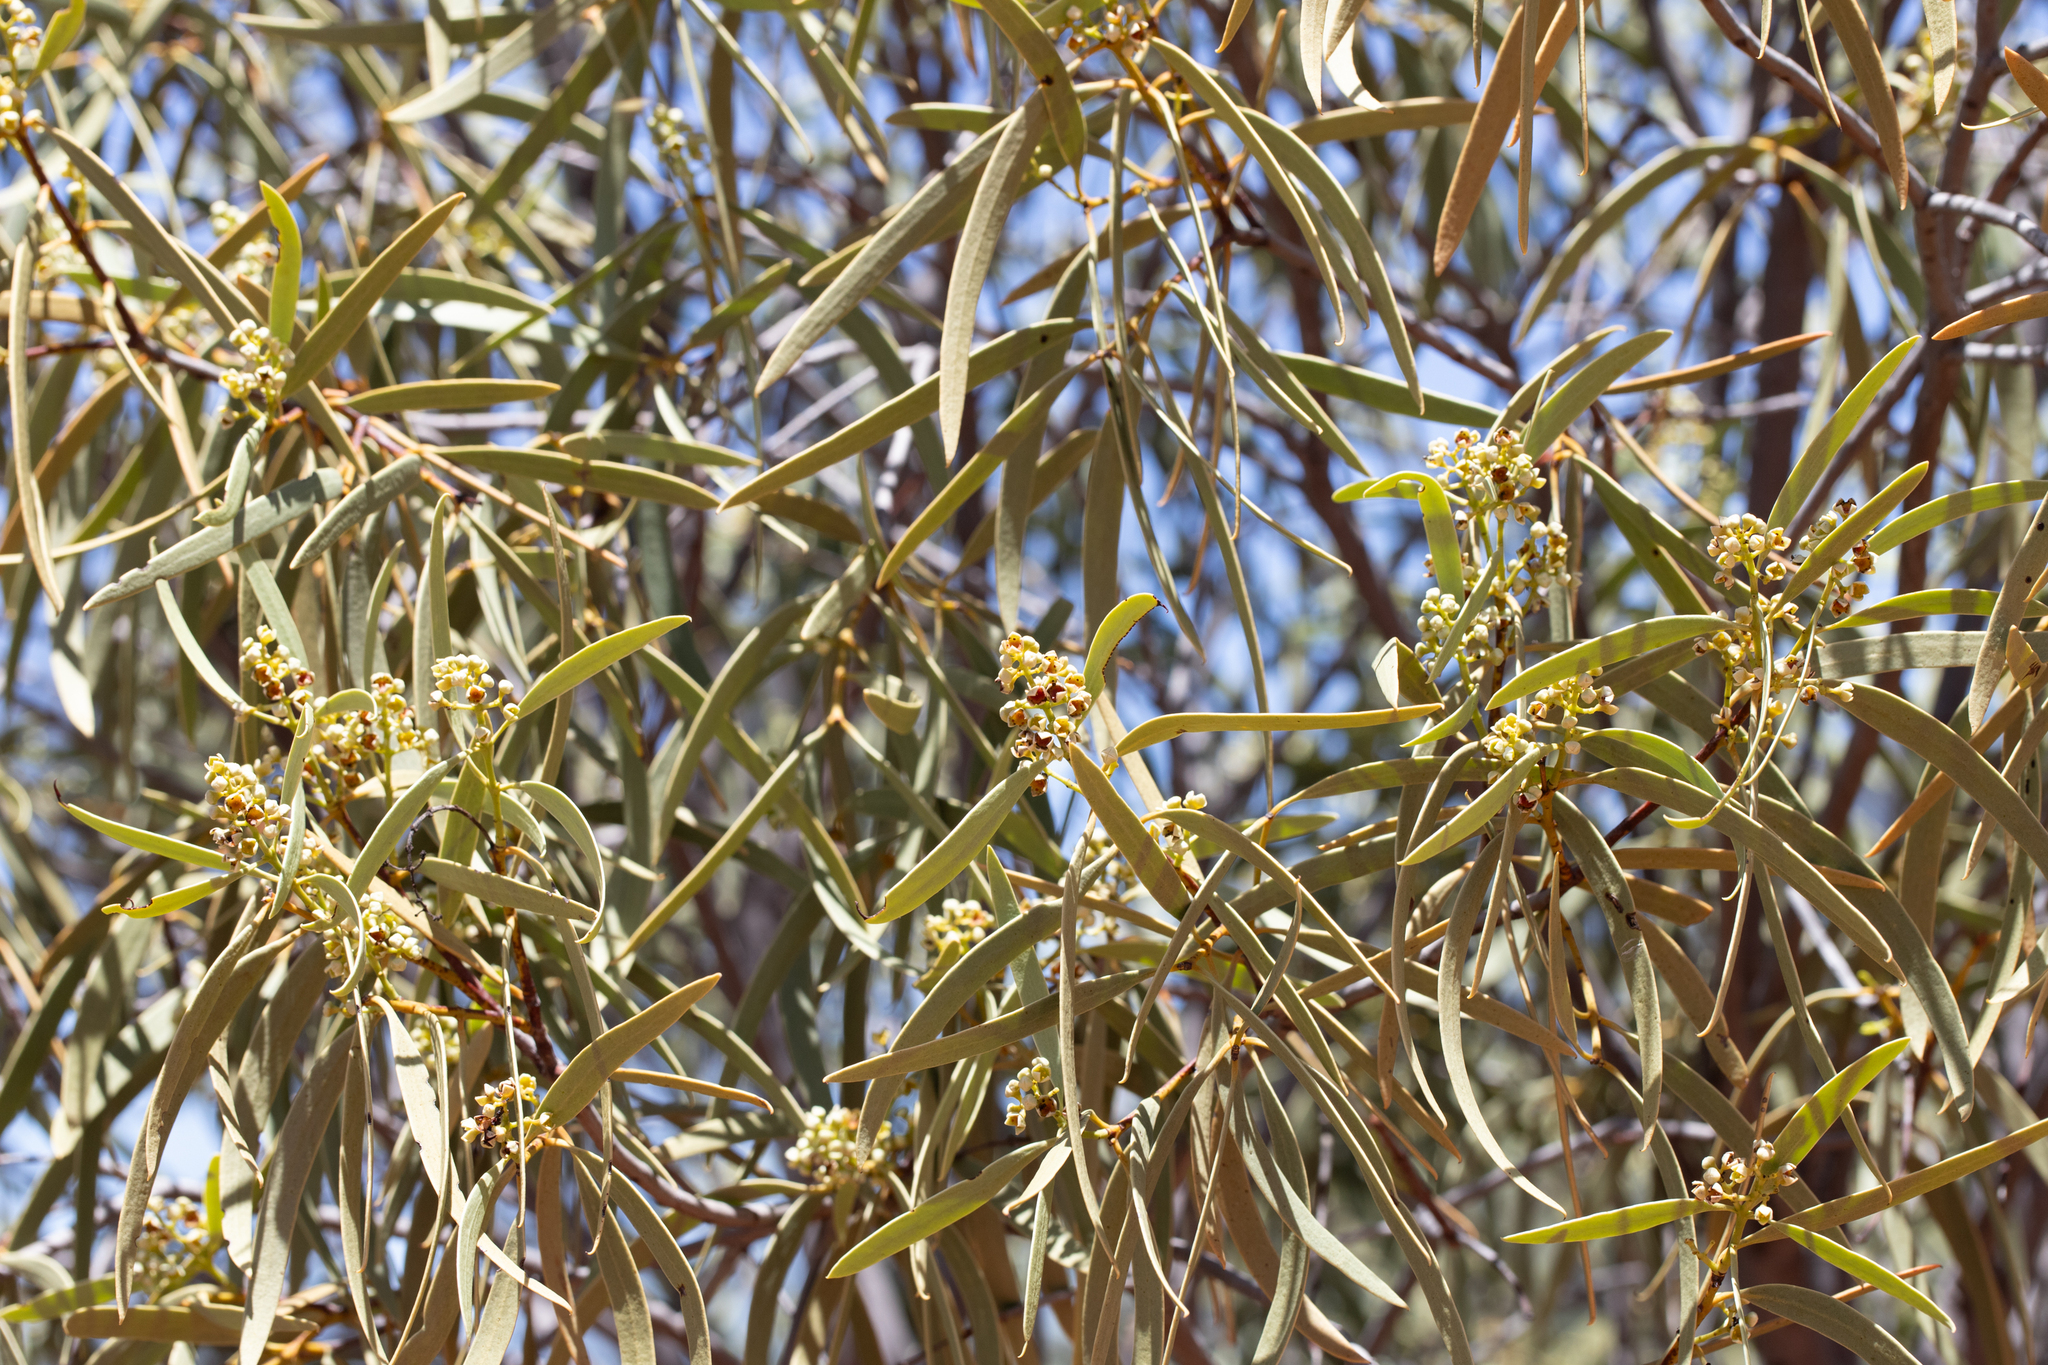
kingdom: Plantae
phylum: Tracheophyta
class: Magnoliopsida
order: Santalales
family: Santalaceae
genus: Santalum
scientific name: Santalum acuminatum
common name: Sweet quandong
